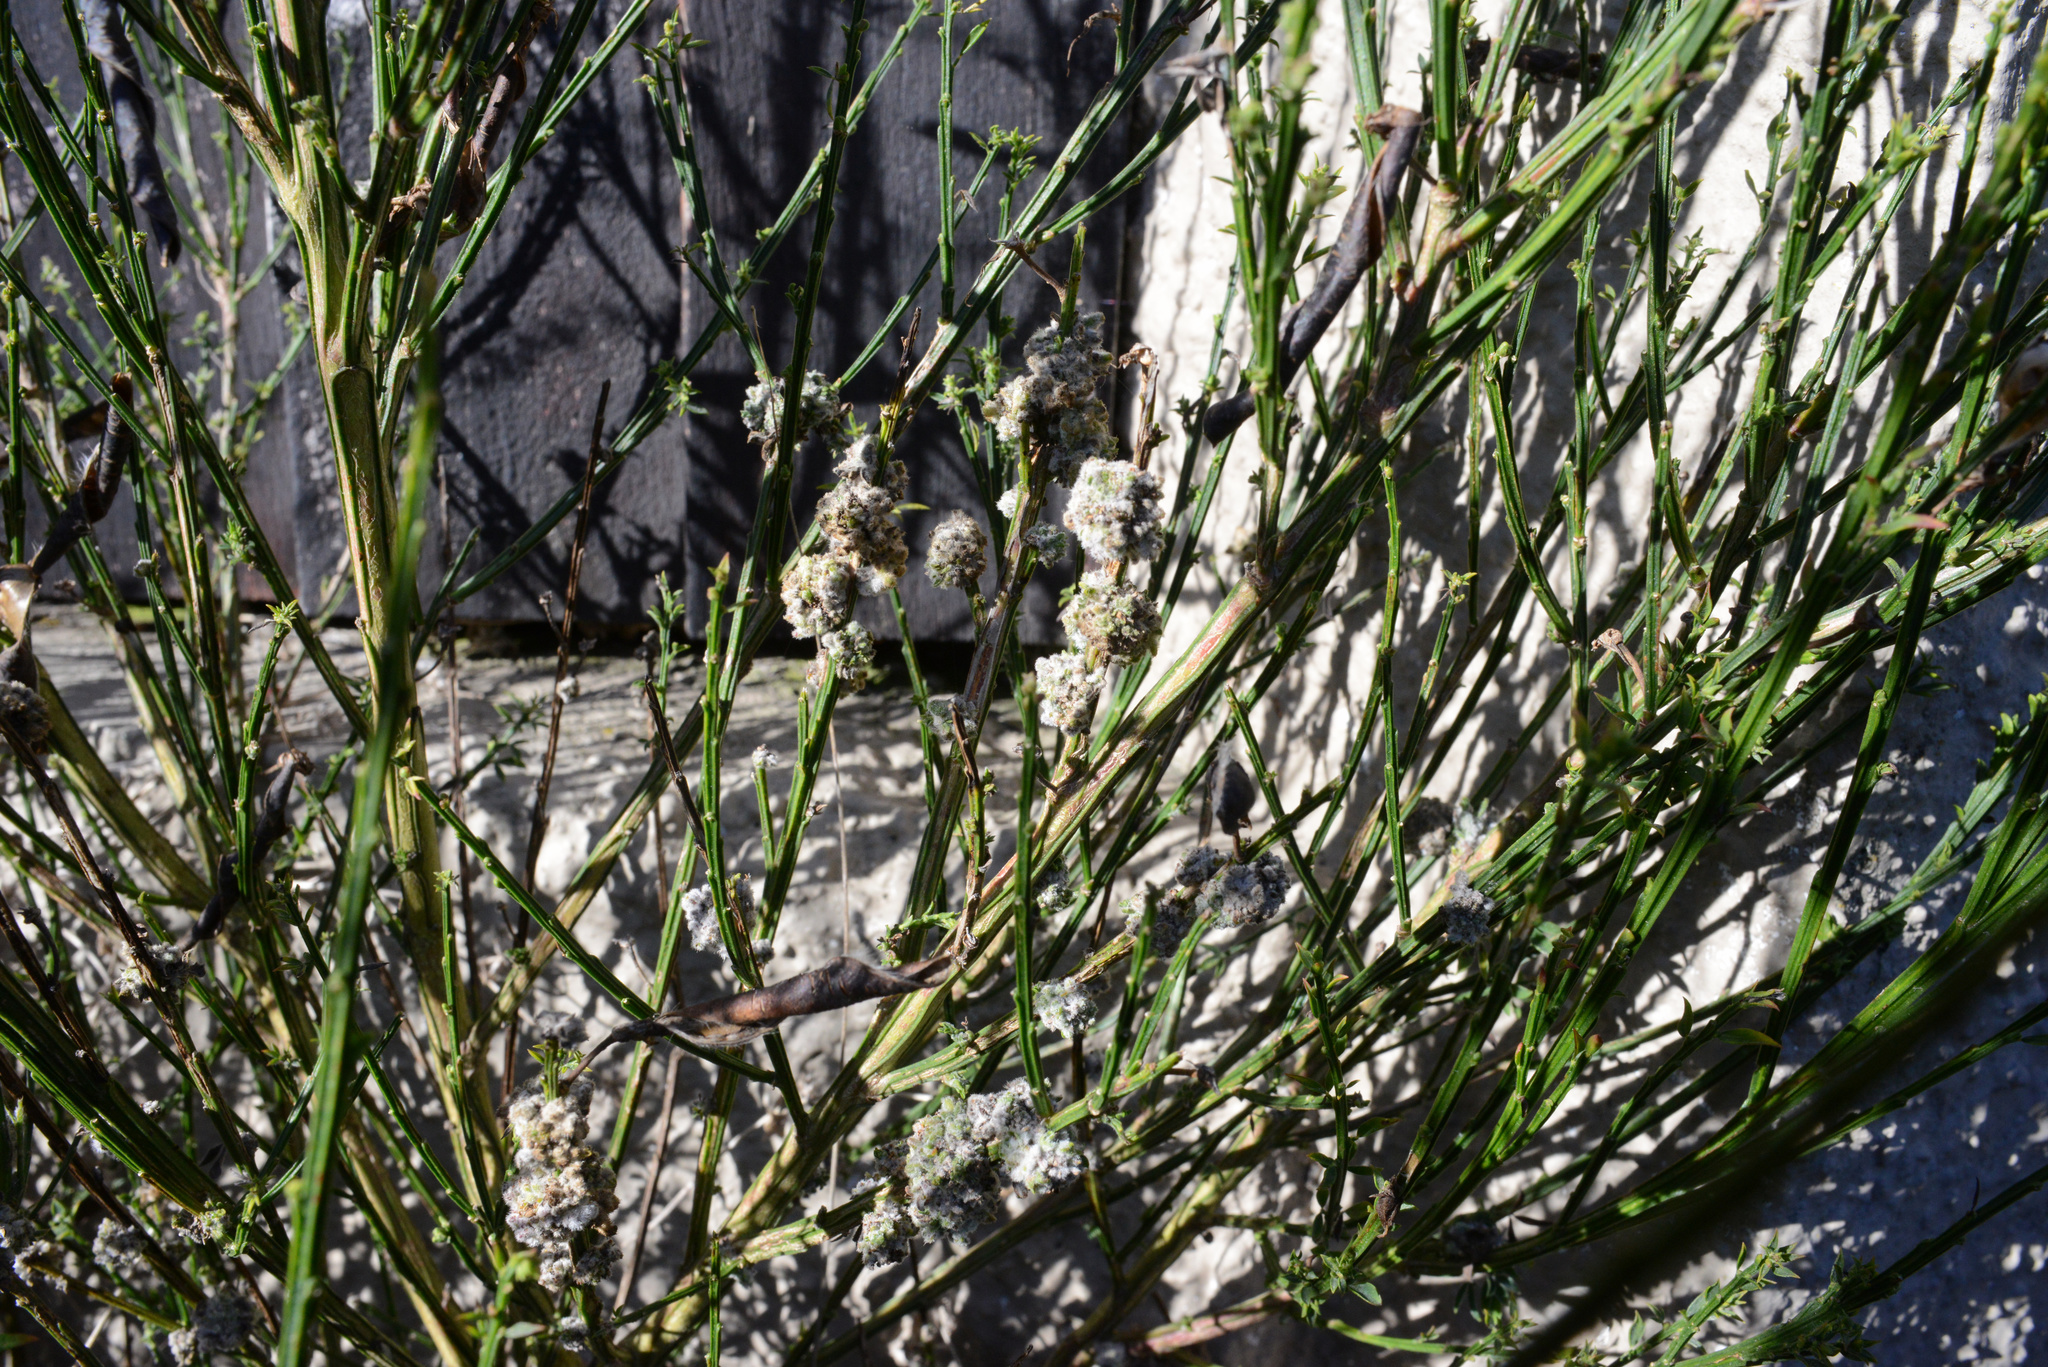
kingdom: Animalia
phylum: Arthropoda
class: Arachnida
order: Trombidiformes
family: Eriophyidae
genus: Aceria
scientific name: Aceria genistae
